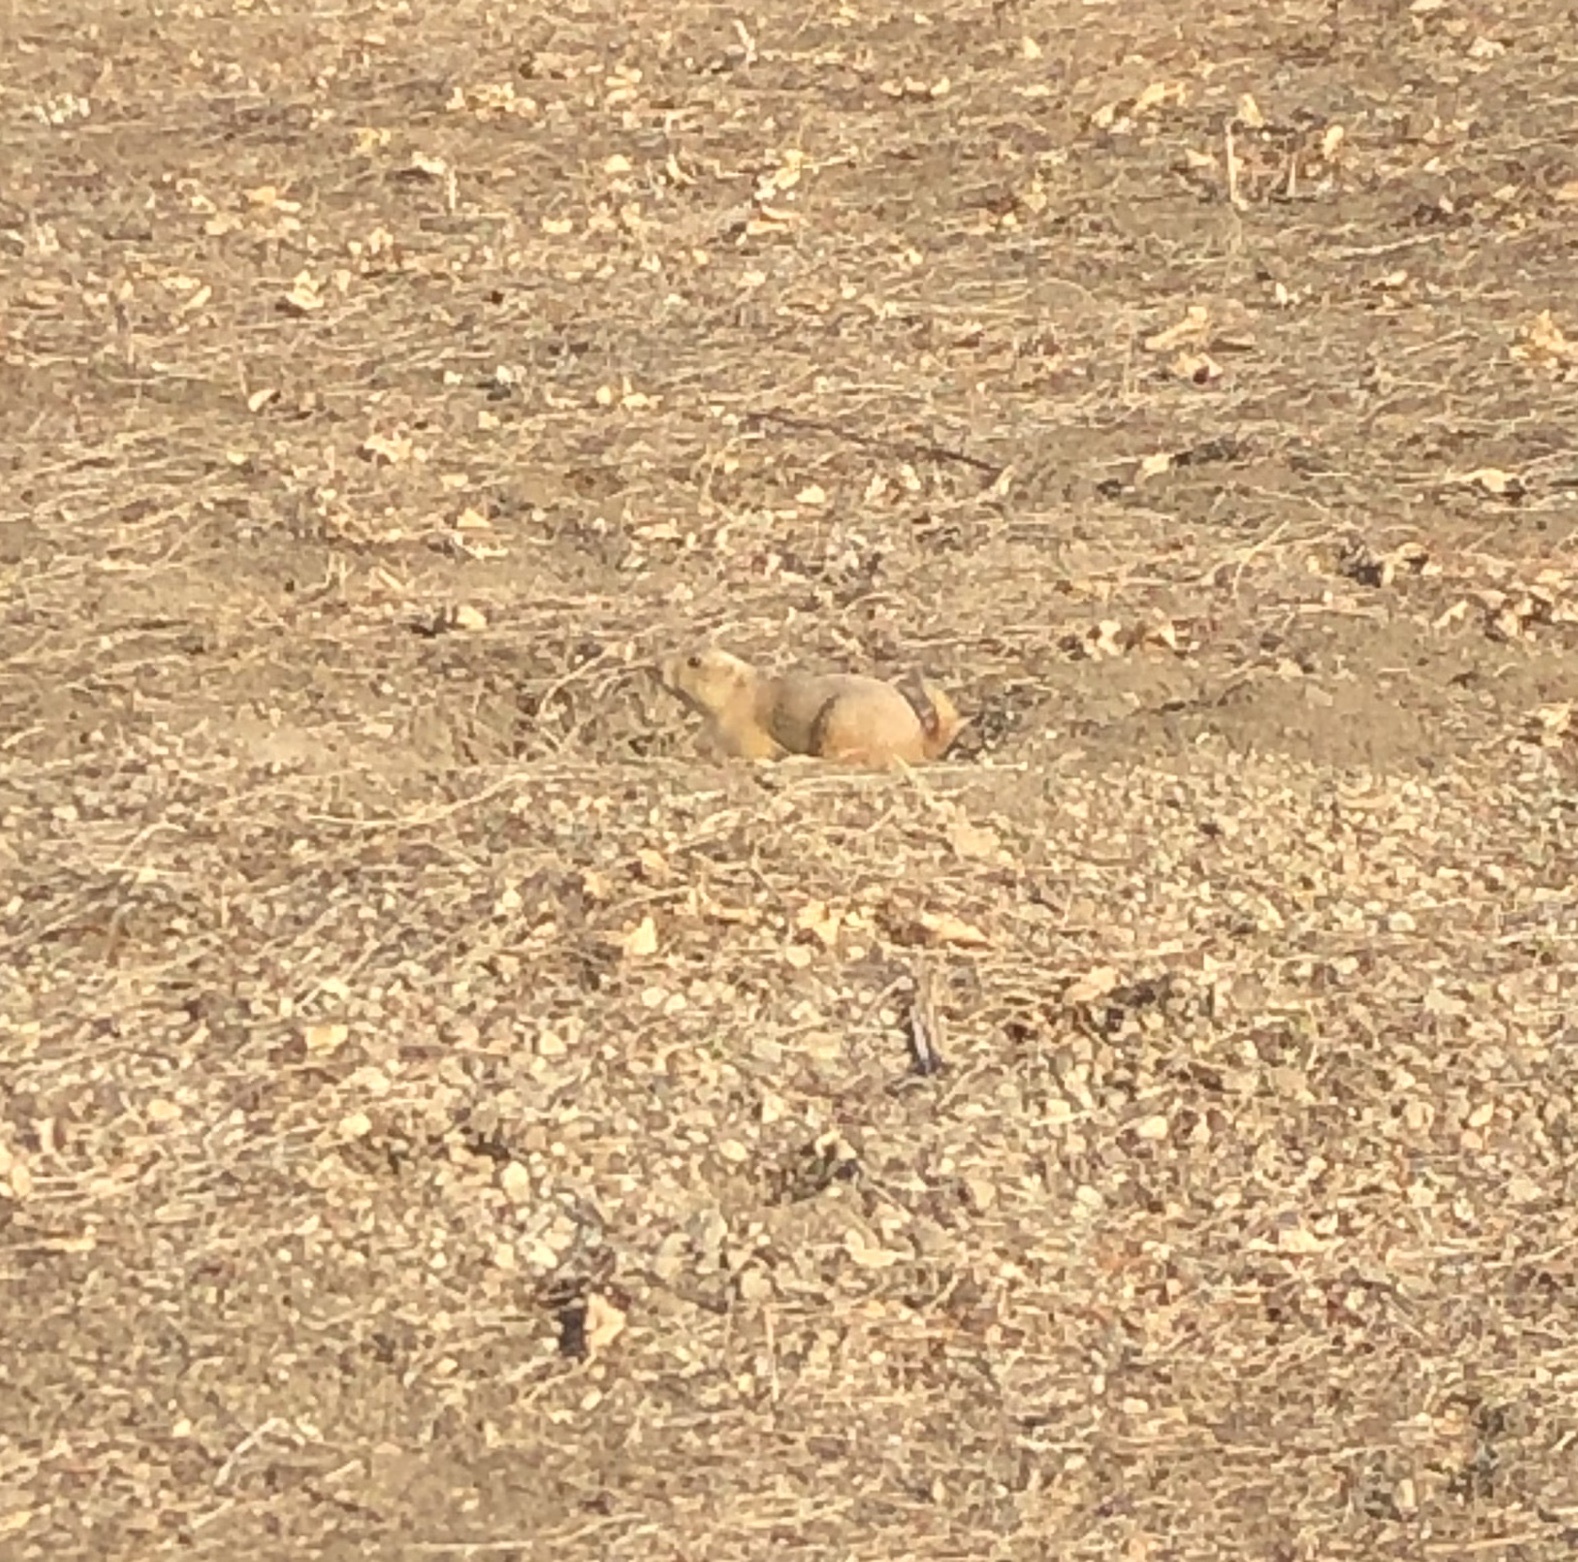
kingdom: Animalia
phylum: Chordata
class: Mammalia
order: Rodentia
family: Sciuridae
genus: Cynomys
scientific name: Cynomys ludovicianus
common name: Black-tailed prairie dog
